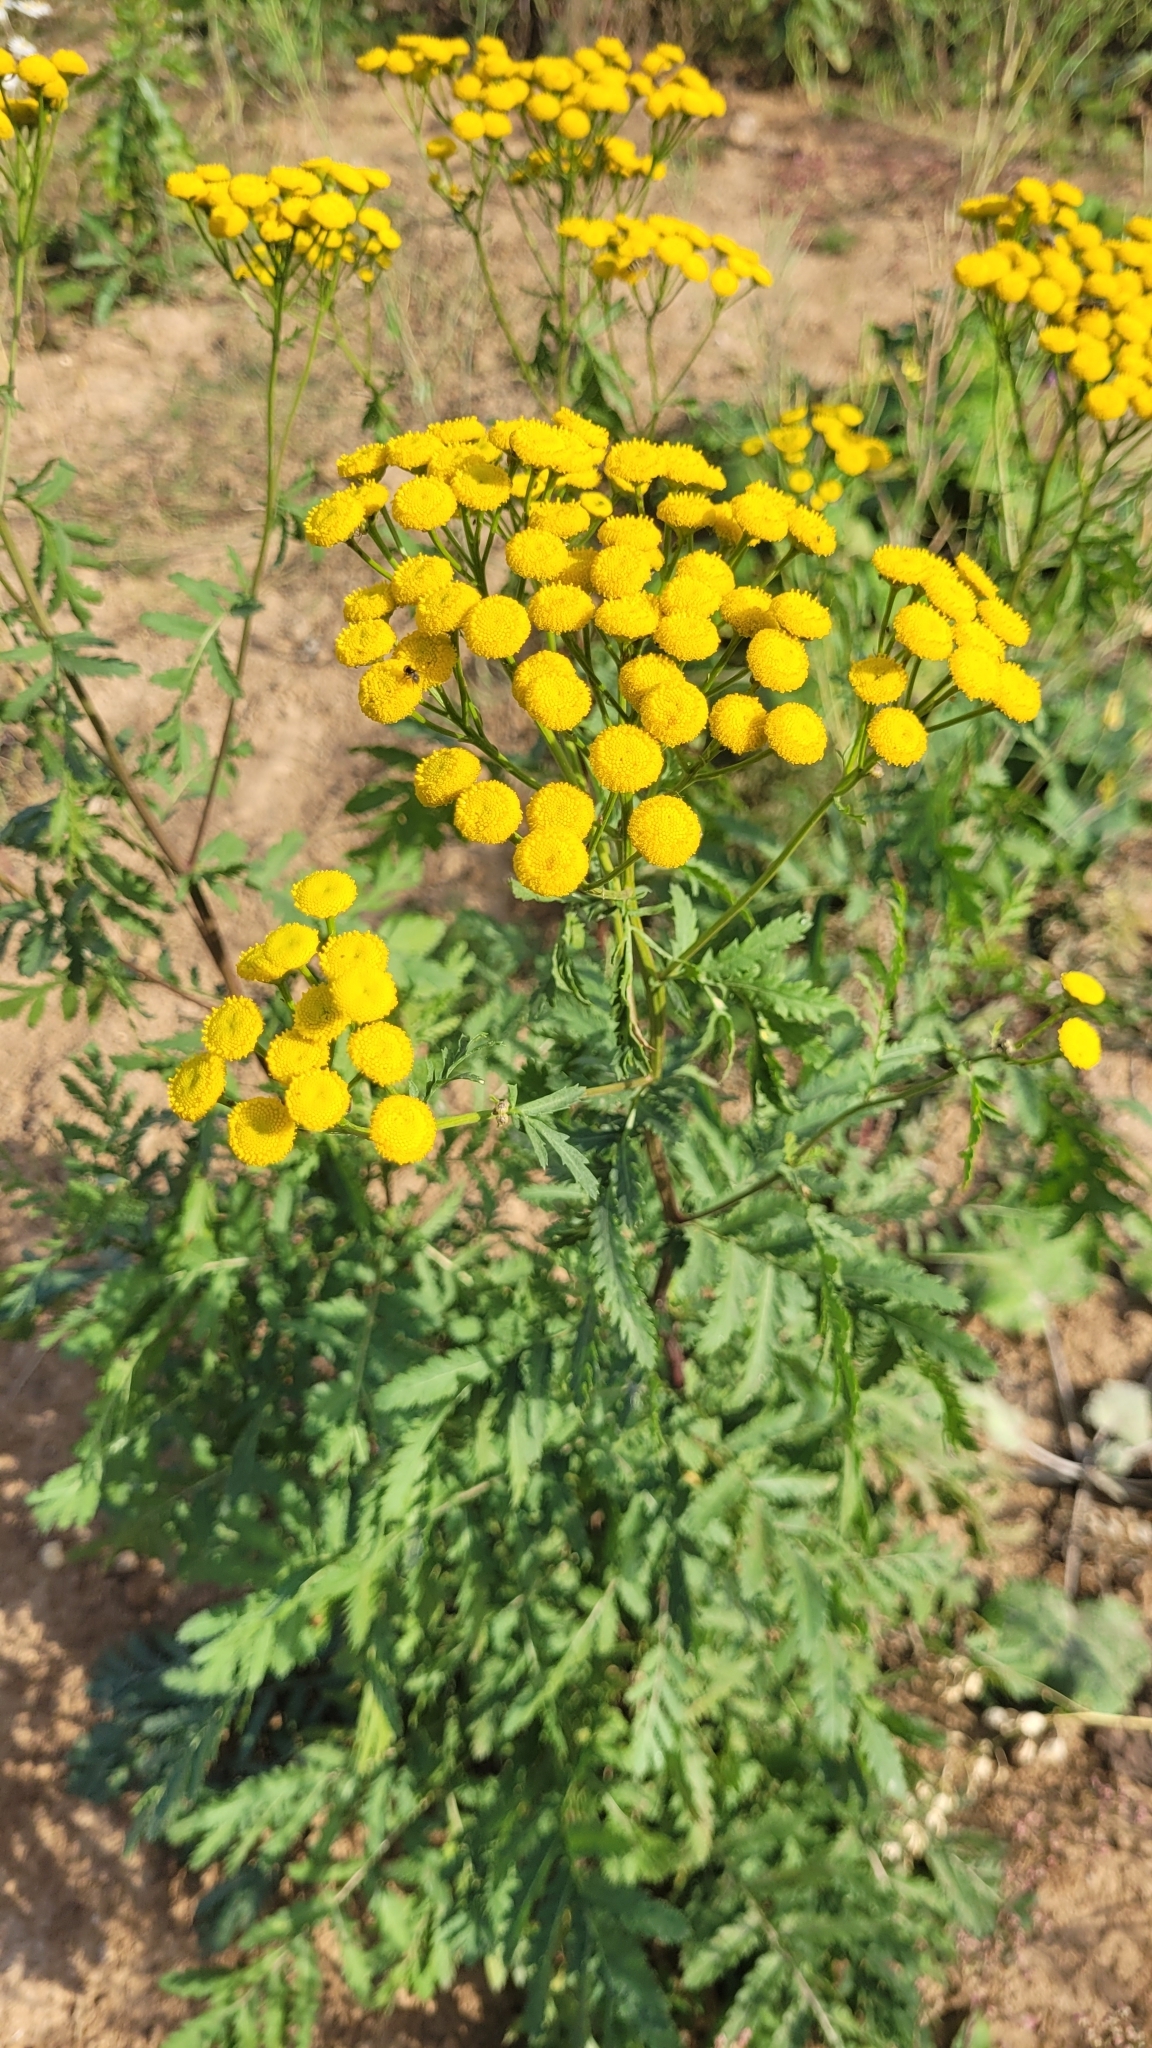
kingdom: Plantae
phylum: Tracheophyta
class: Magnoliopsida
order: Asterales
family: Asteraceae
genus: Tanacetum
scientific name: Tanacetum vulgare
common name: Common tansy
